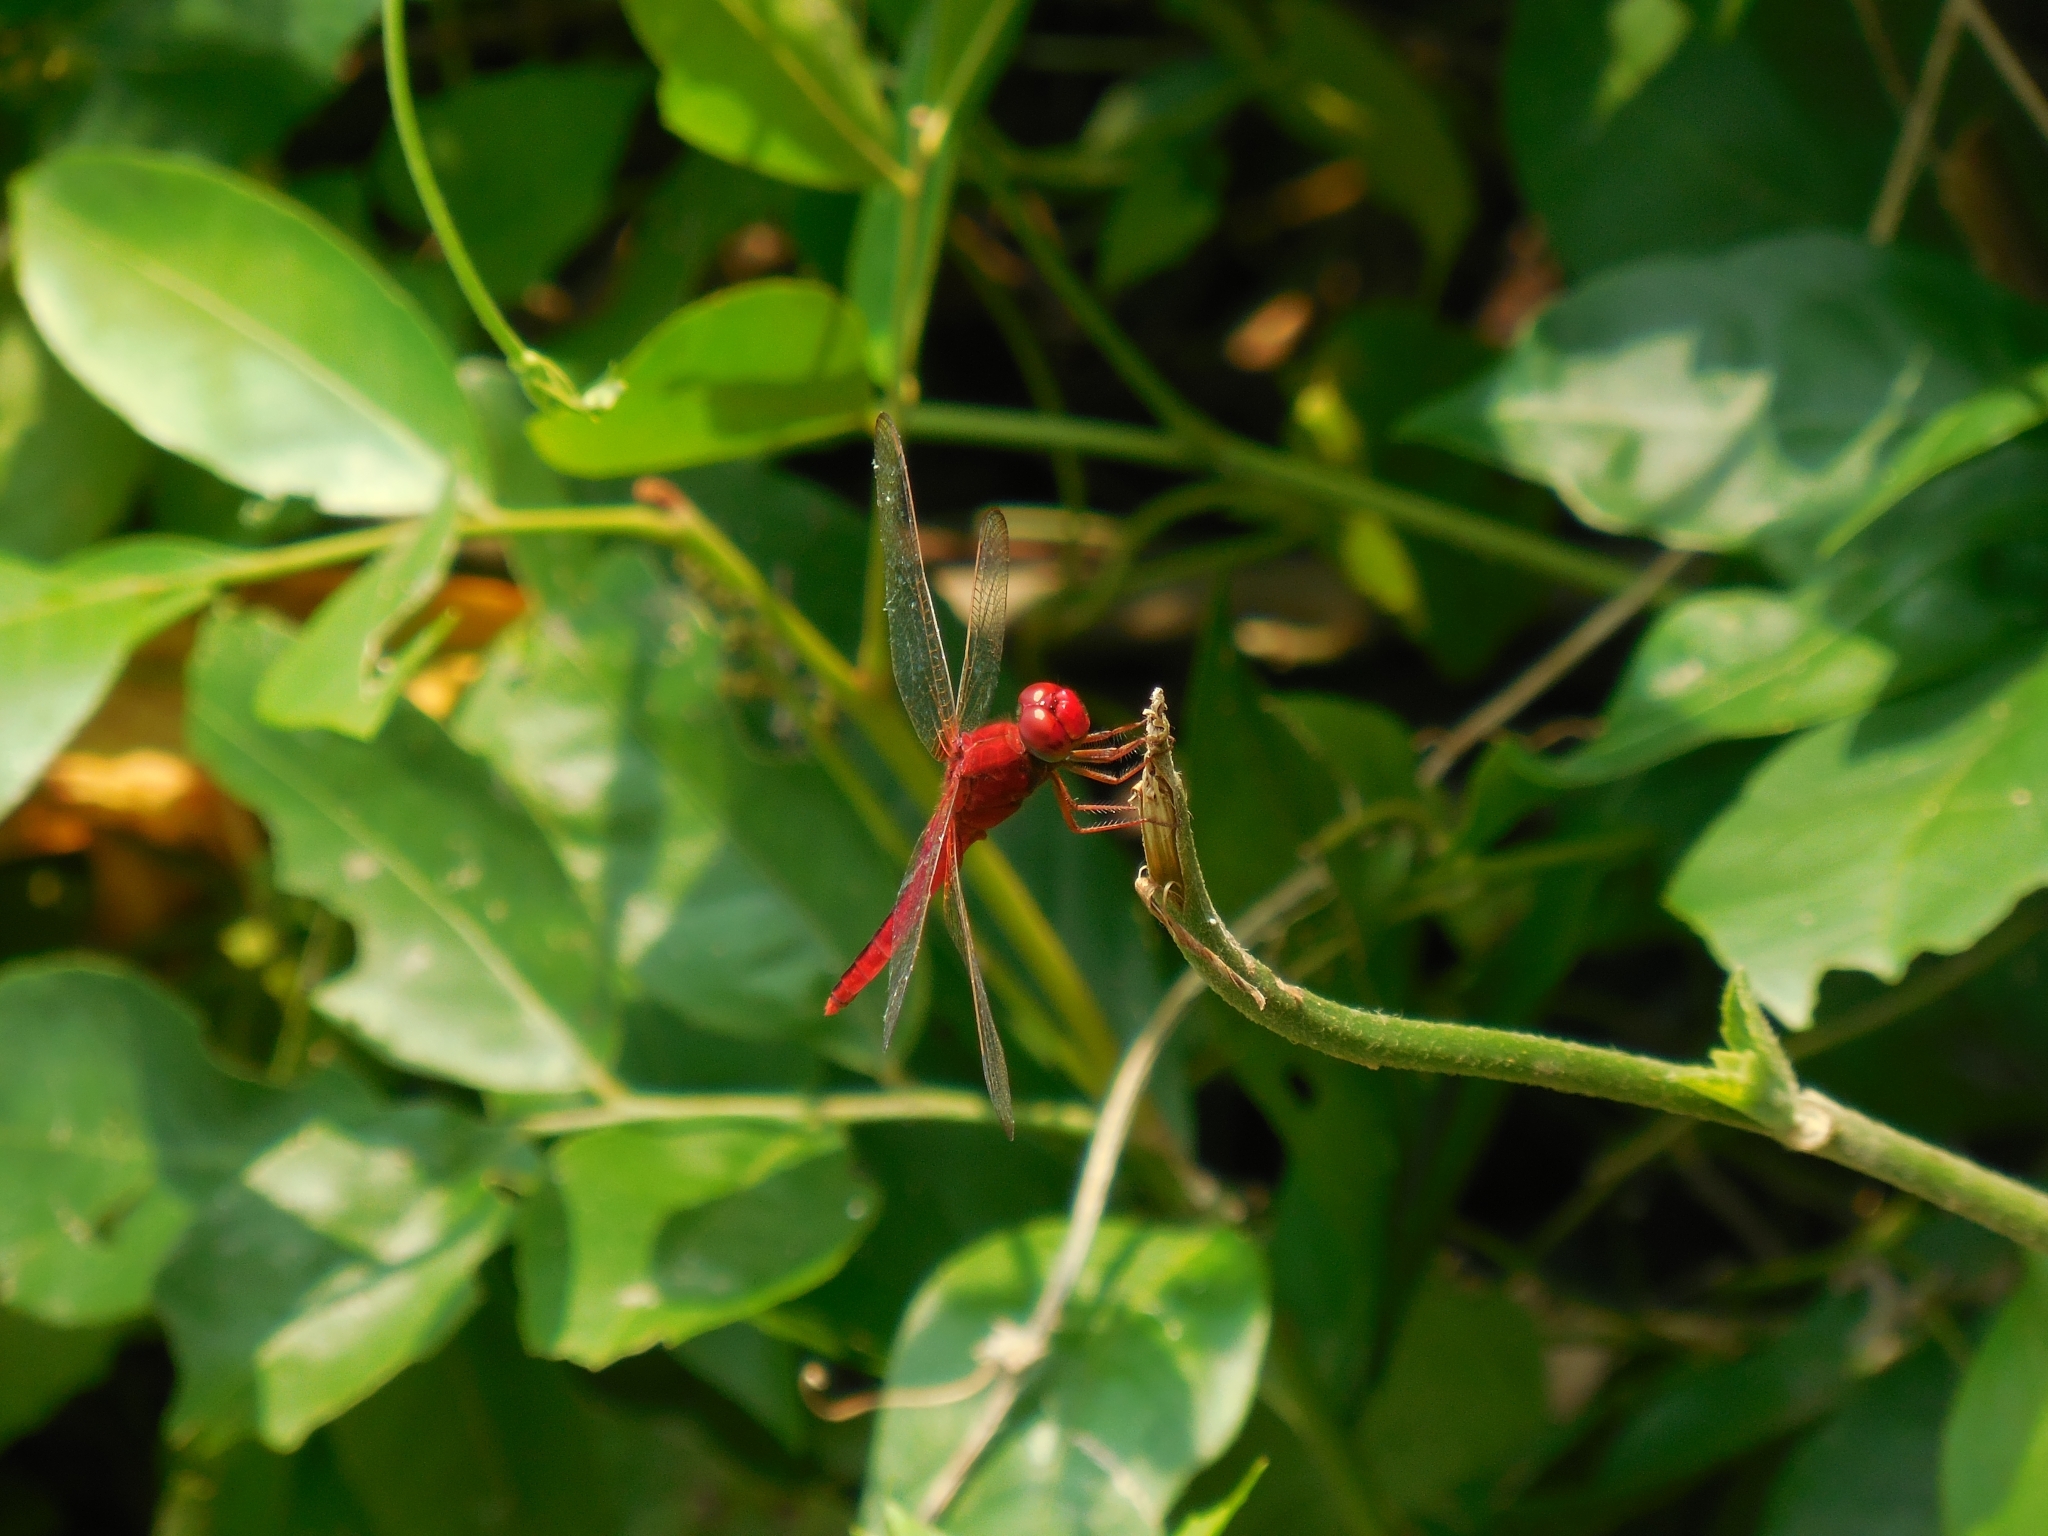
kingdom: Animalia
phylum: Arthropoda
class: Insecta
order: Odonata
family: Libellulidae
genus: Crocothemis
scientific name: Crocothemis servilia
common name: Scarlet skimmer
